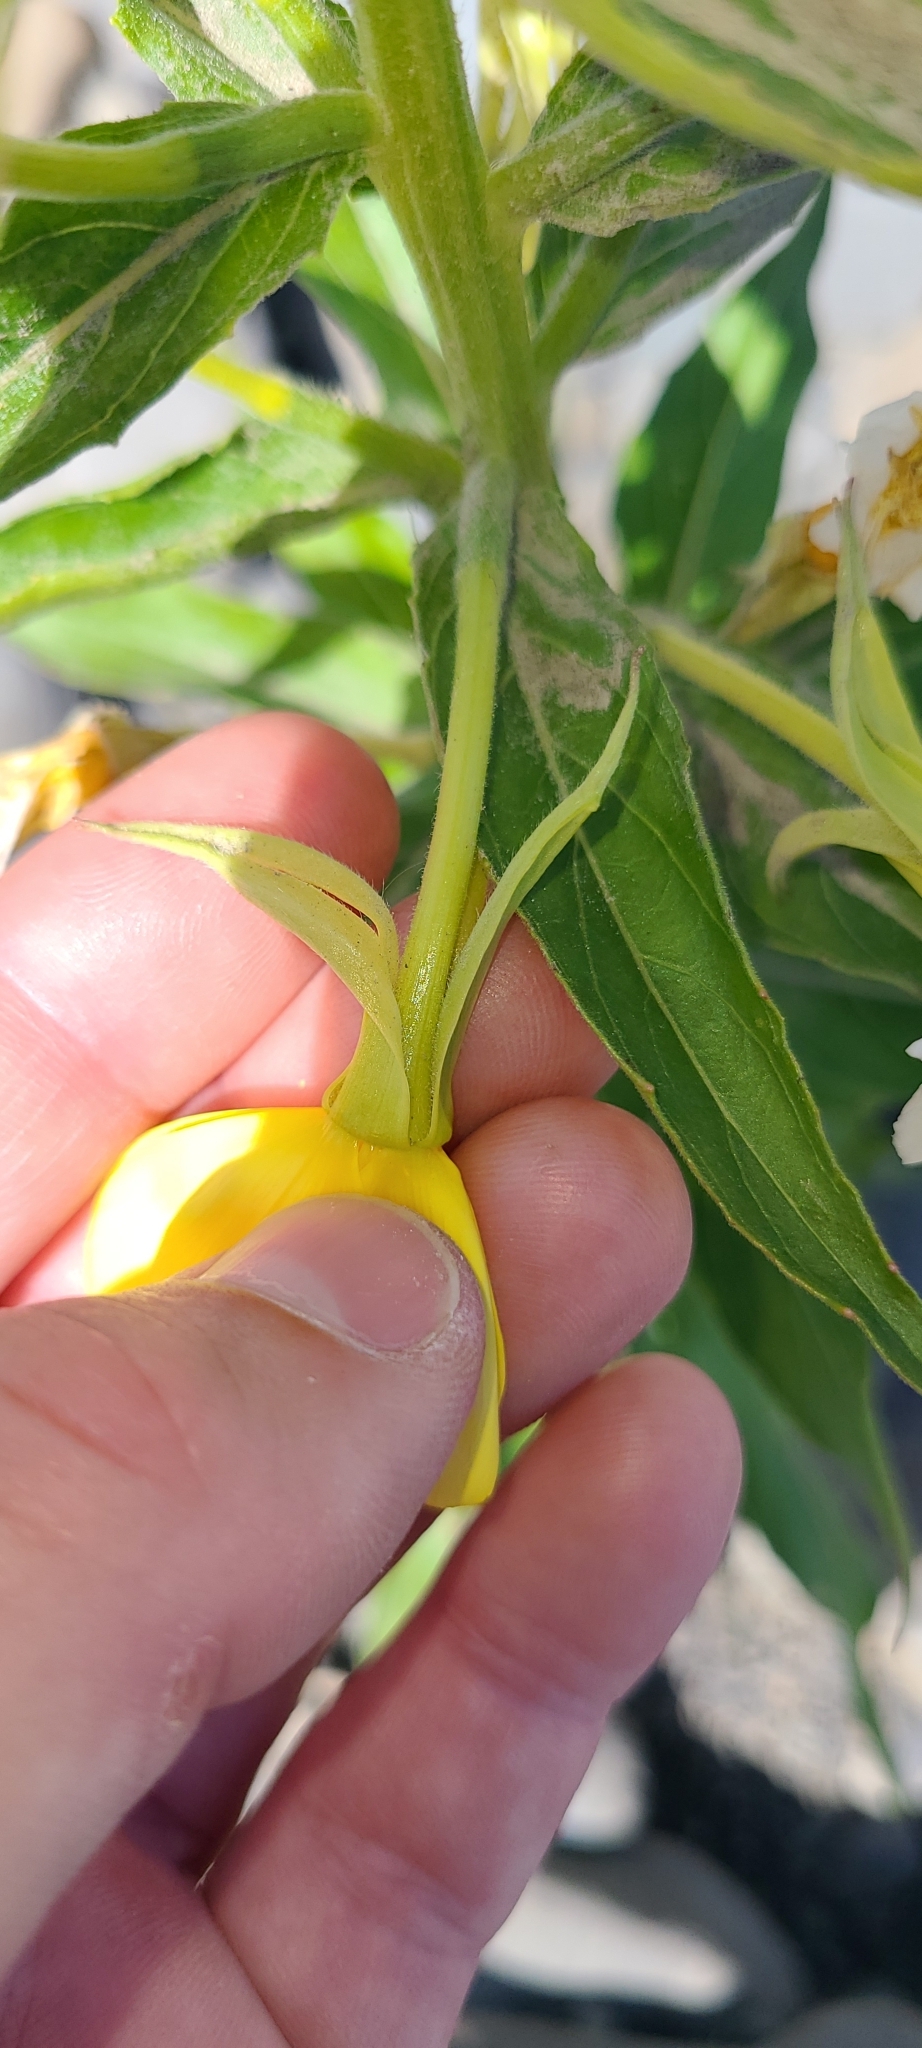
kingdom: Plantae
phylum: Tracheophyta
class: Magnoliopsida
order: Myrtales
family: Onagraceae
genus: Oenothera
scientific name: Oenothera biennis
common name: Common evening-primrose
